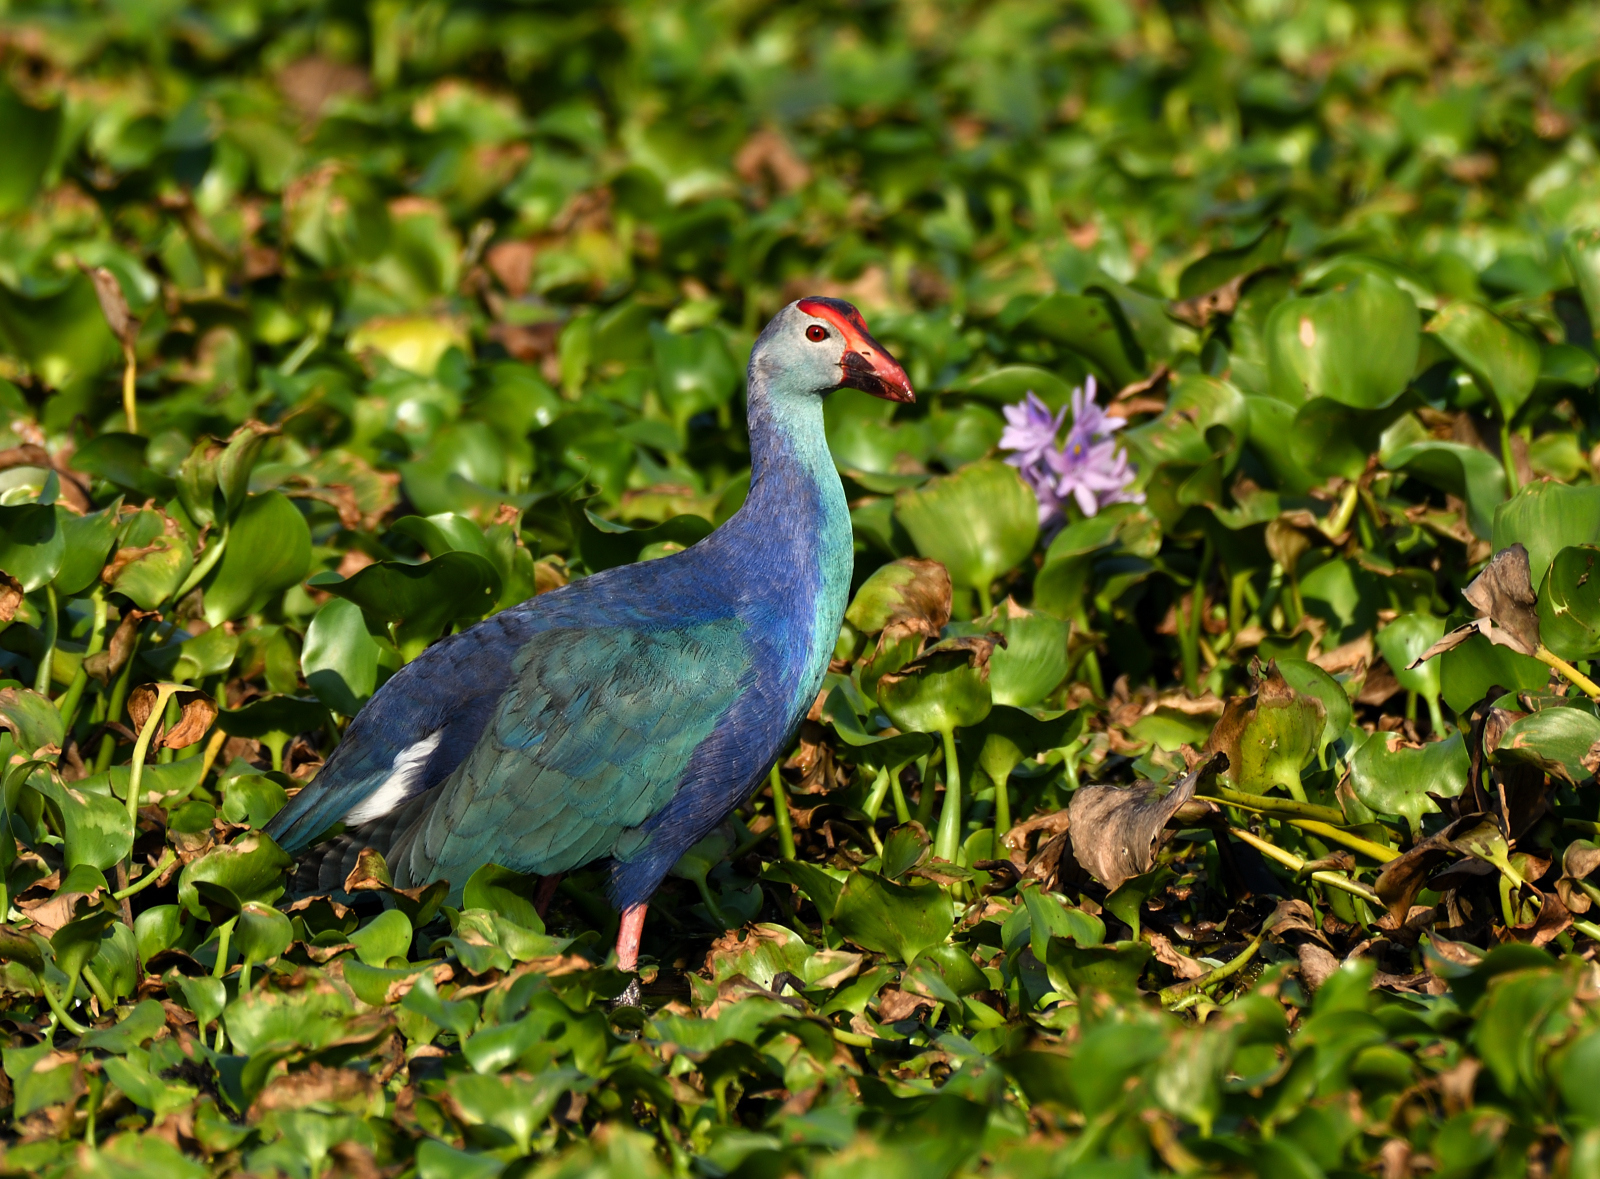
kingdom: Animalia
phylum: Chordata
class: Aves
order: Gruiformes
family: Rallidae
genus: Porphyrio
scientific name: Porphyrio porphyrio
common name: Purple swamphen
